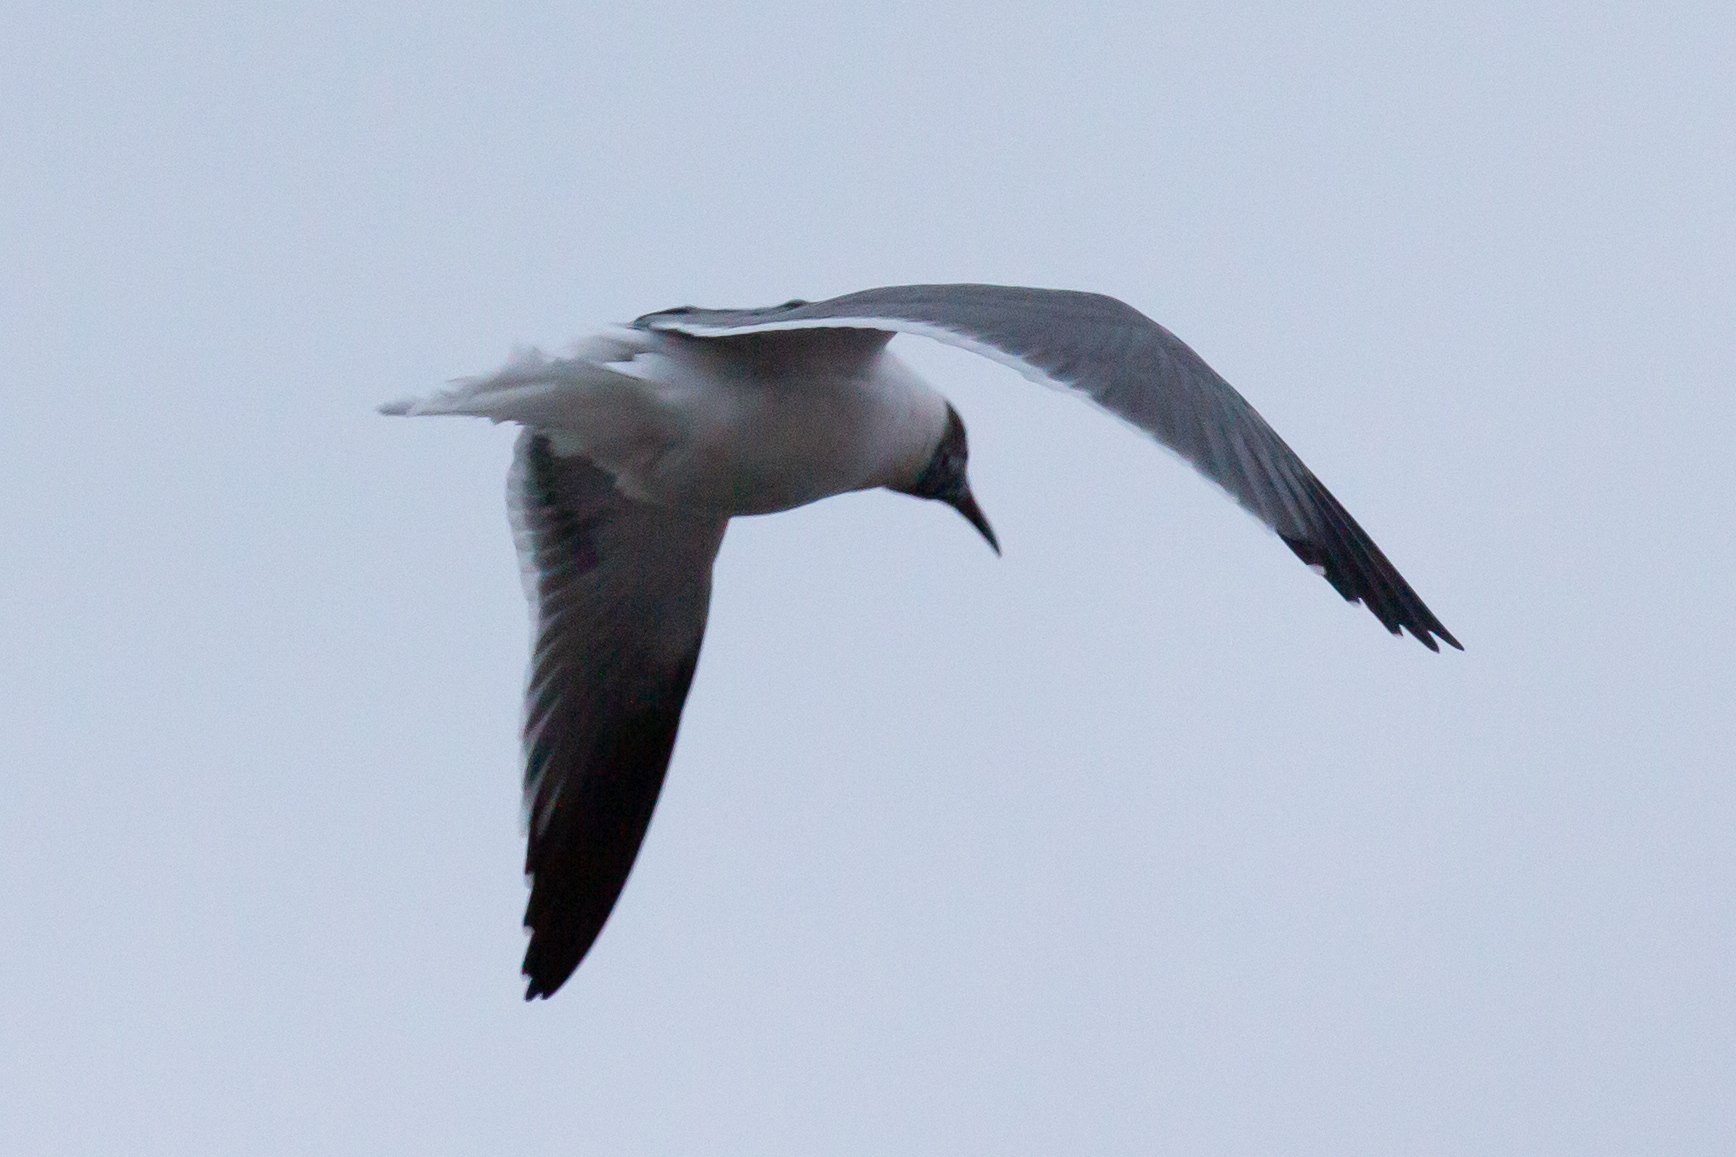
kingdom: Animalia
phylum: Chordata
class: Aves
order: Charadriiformes
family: Laridae
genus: Leucophaeus
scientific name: Leucophaeus atricilla
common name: Laughing gull
